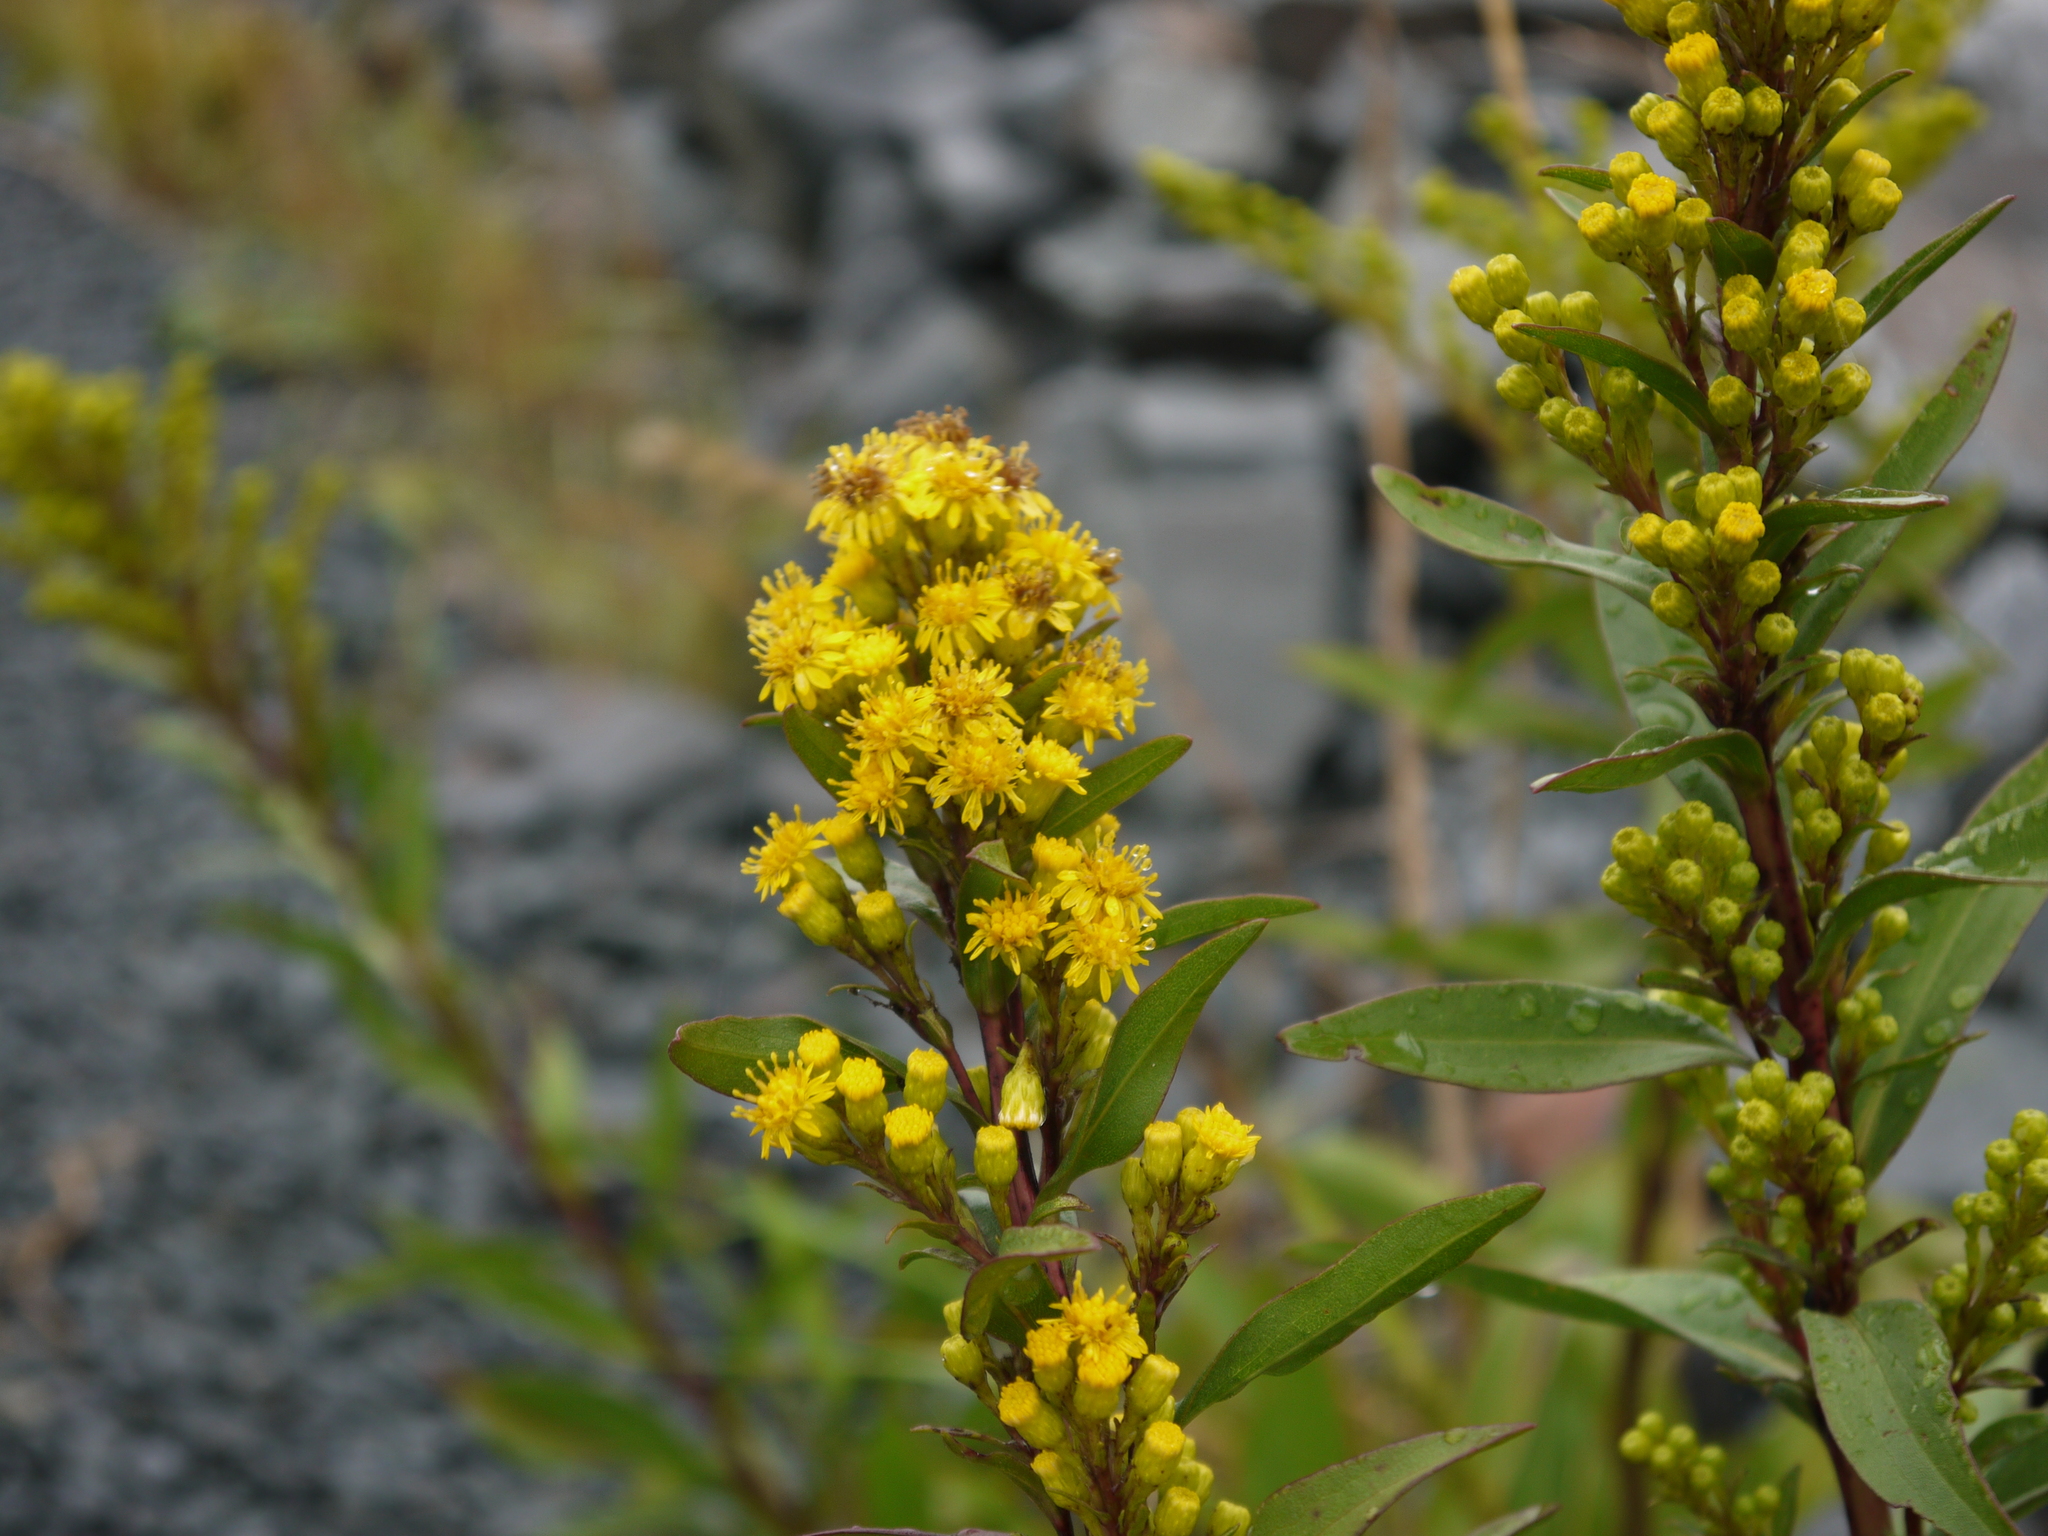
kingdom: Plantae
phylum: Tracheophyta
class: Magnoliopsida
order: Asterales
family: Asteraceae
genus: Solidago
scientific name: Solidago sempervirens
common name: Salt-marsh goldenrod
